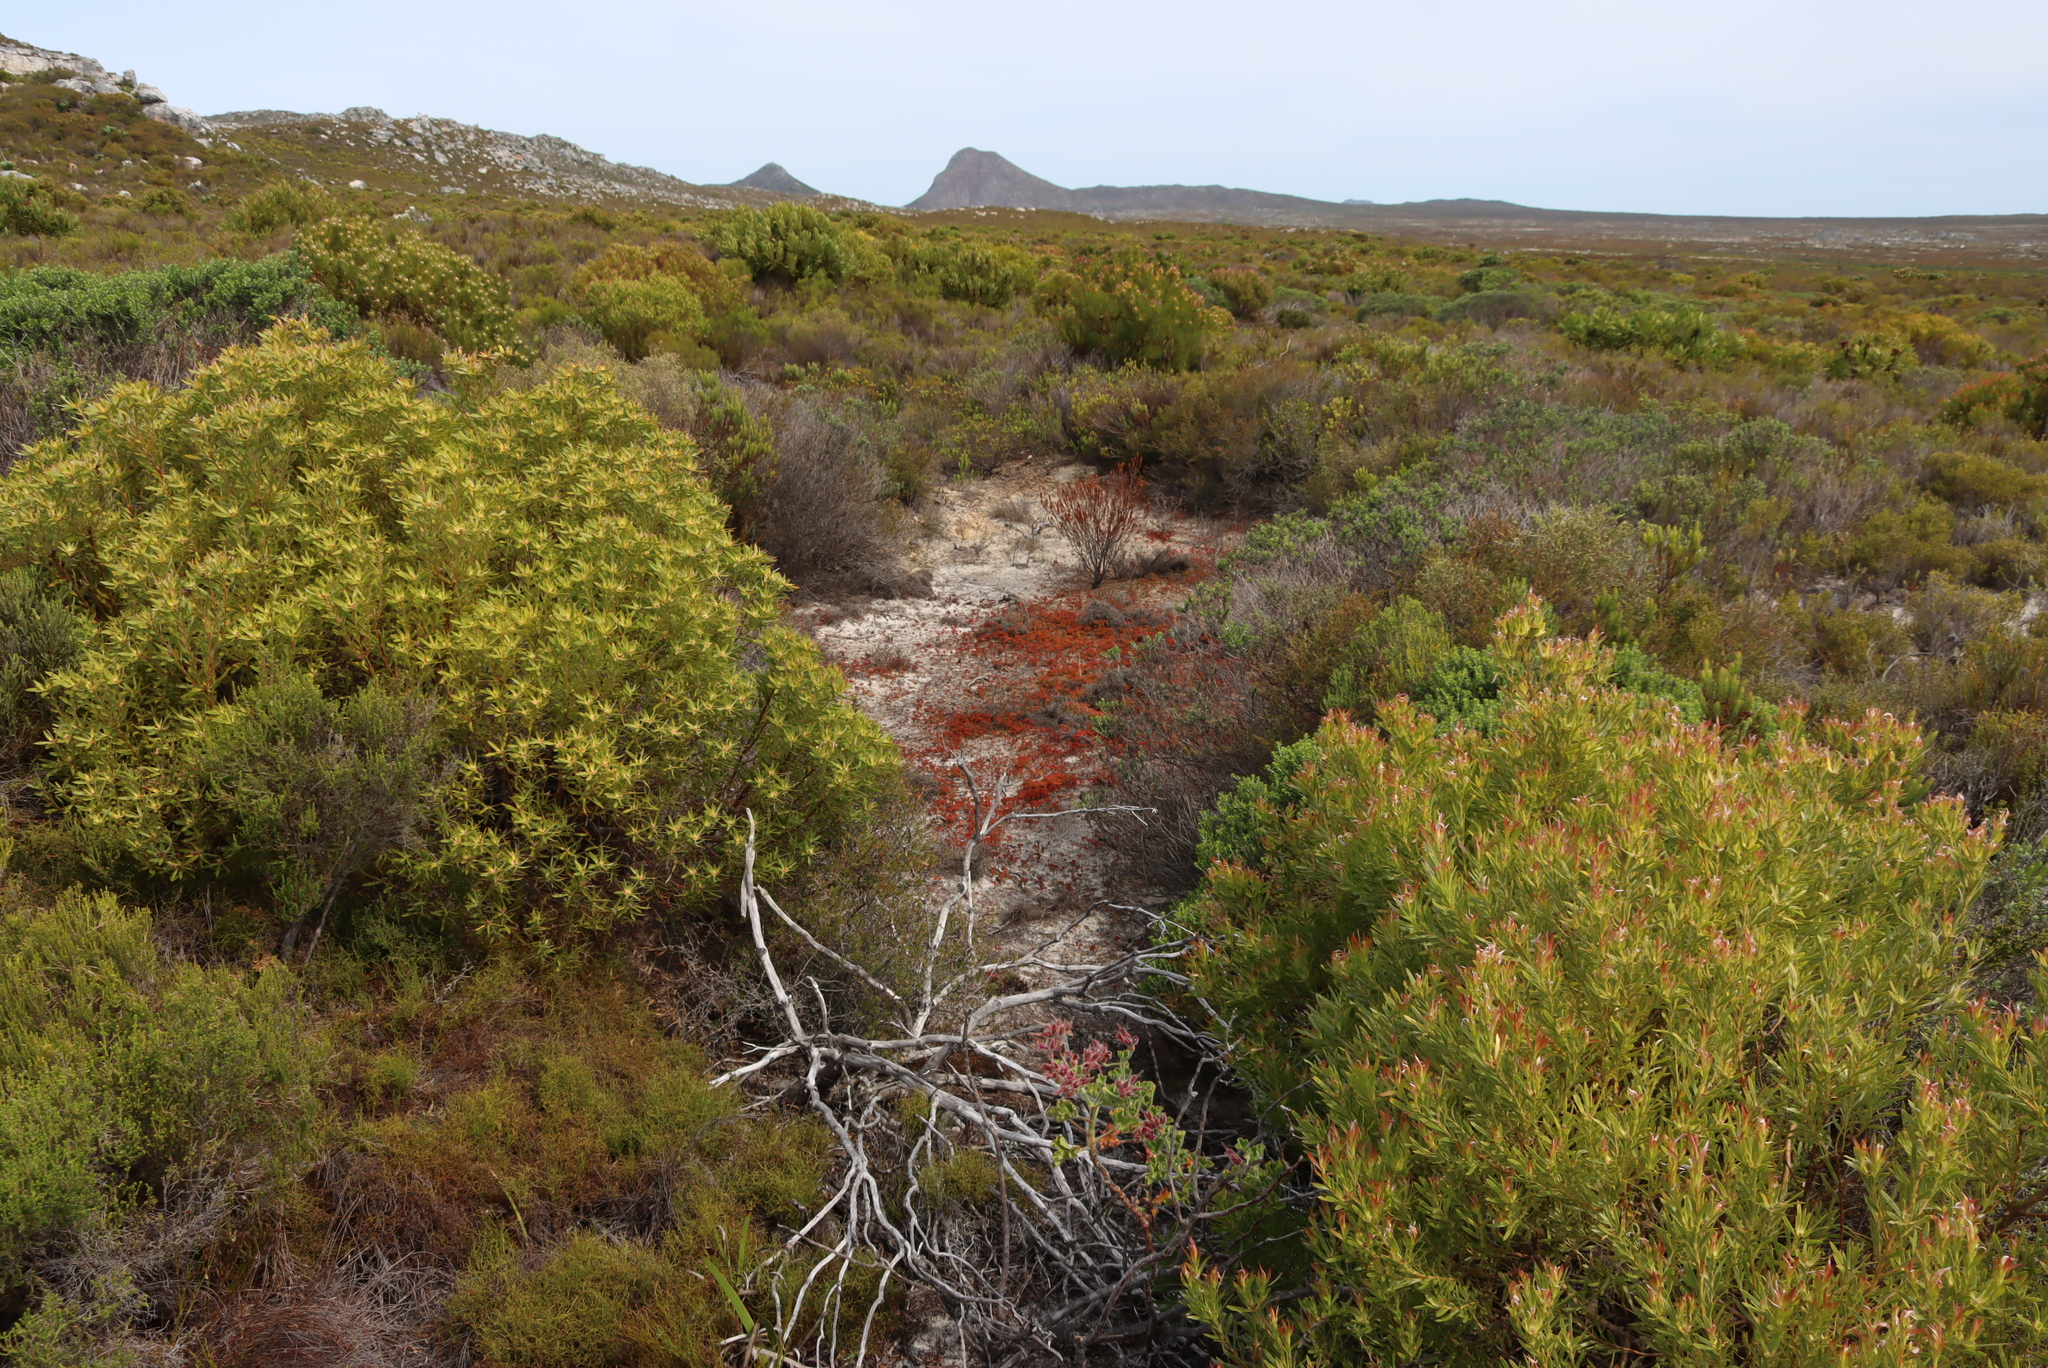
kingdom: Plantae
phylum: Tracheophyta
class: Magnoliopsida
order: Saxifragales
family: Crassulaceae
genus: Crassula
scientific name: Crassula glomerata
